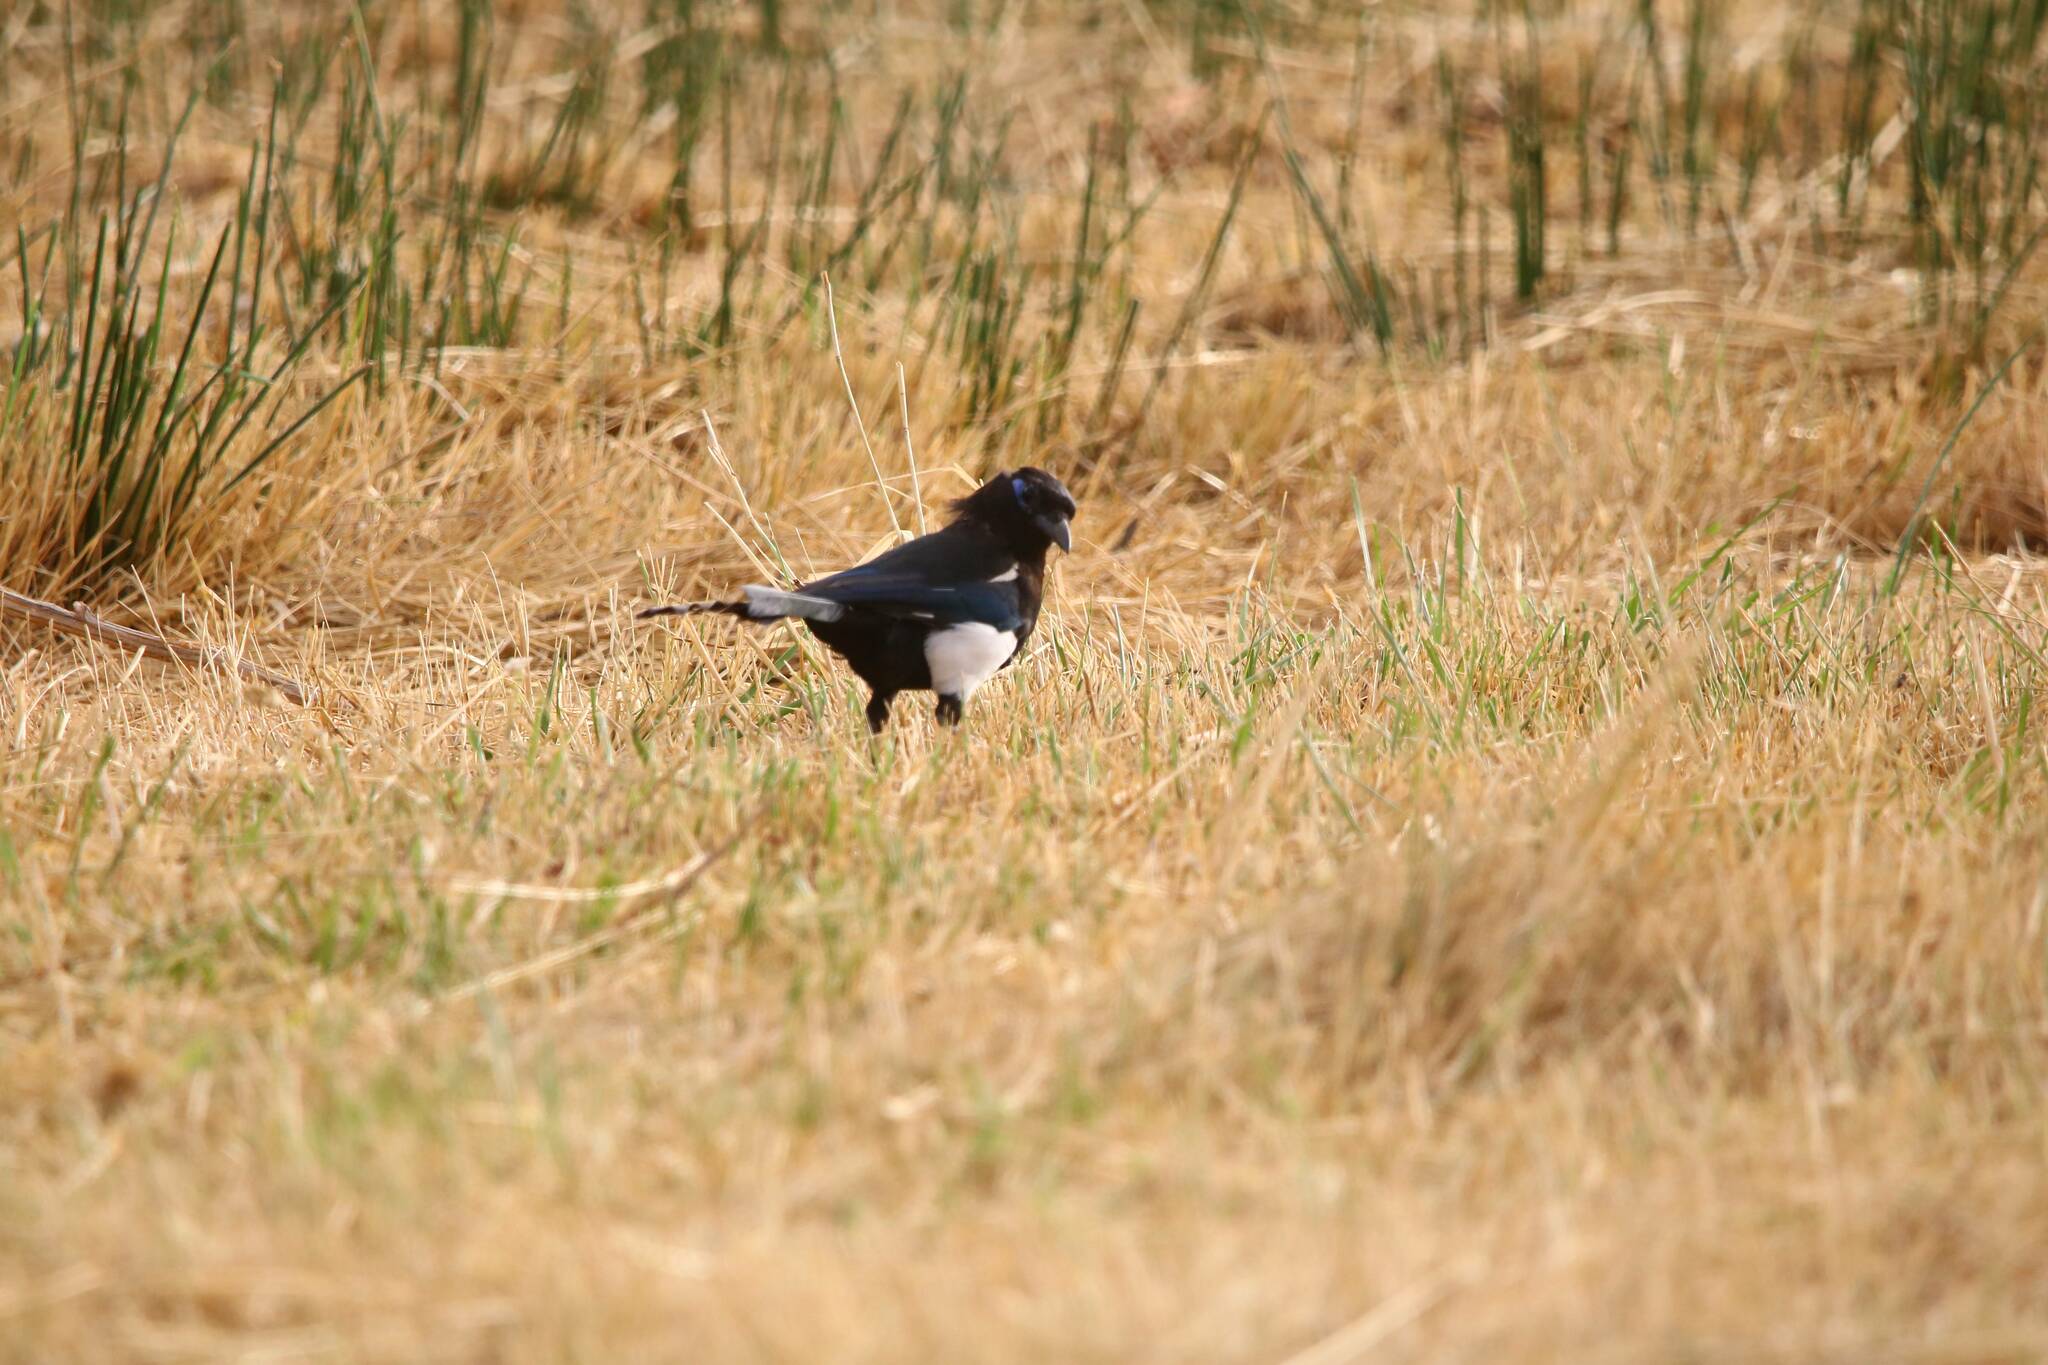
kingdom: Animalia
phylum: Chordata
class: Aves
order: Passeriformes
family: Corvidae
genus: Pica
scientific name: Pica mauritanica
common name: Maghreb magpie
